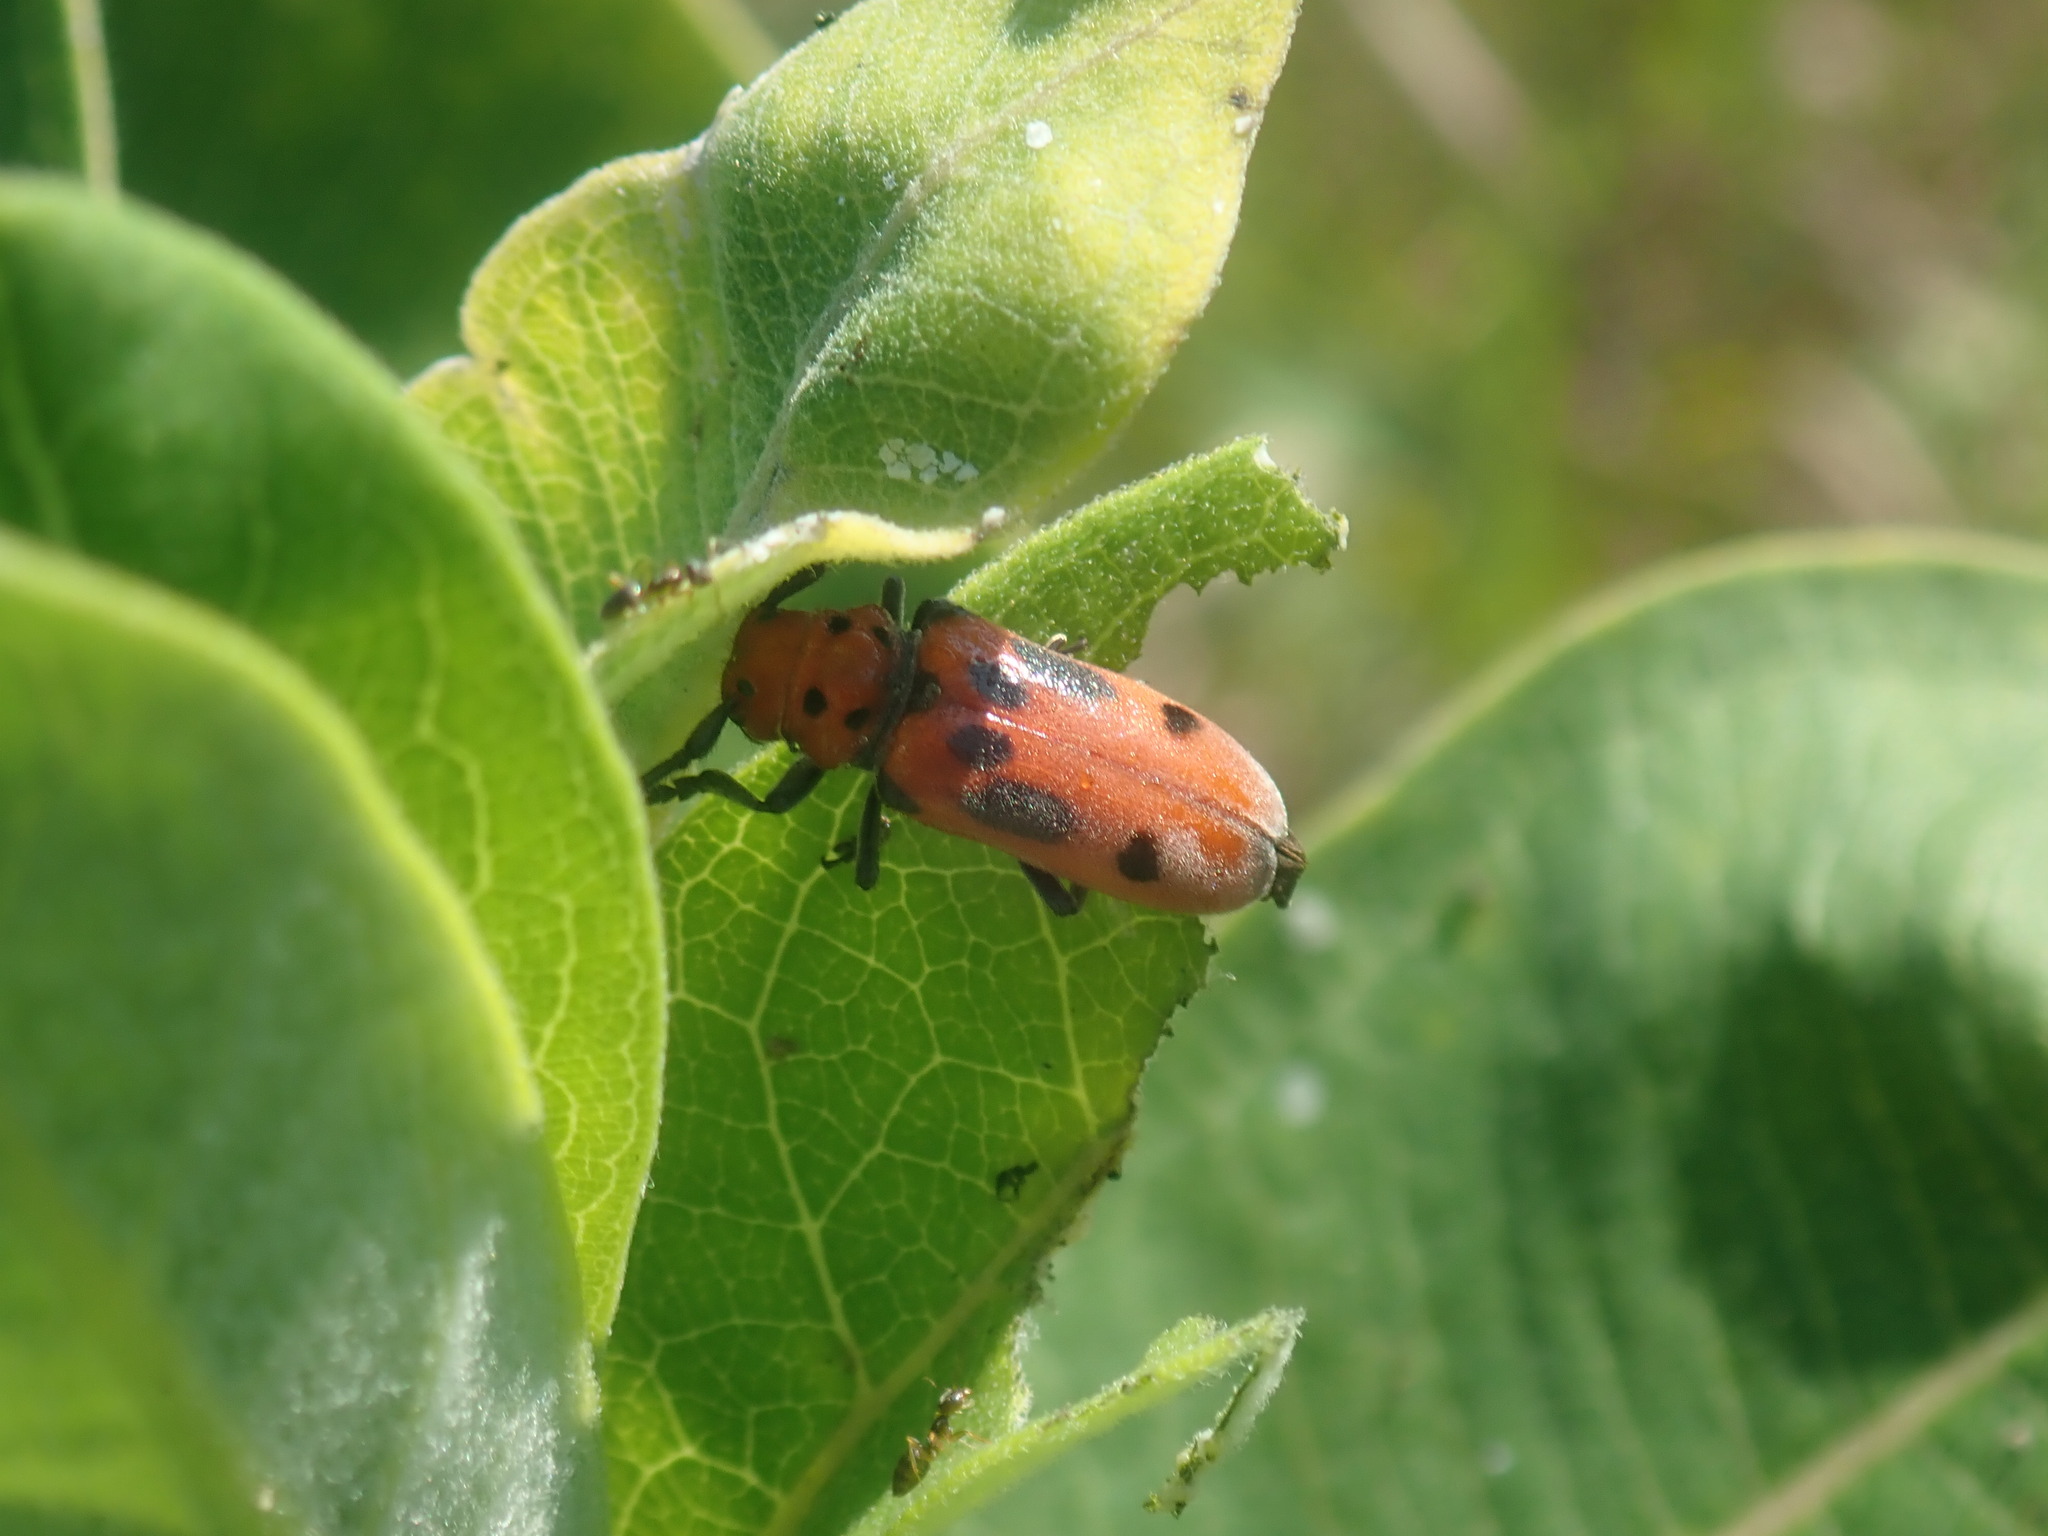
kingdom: Animalia
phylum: Arthropoda
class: Insecta
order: Coleoptera
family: Cerambycidae
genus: Tetraopes
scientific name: Tetraopes tetrophthalmus
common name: Red milkweed beetle
